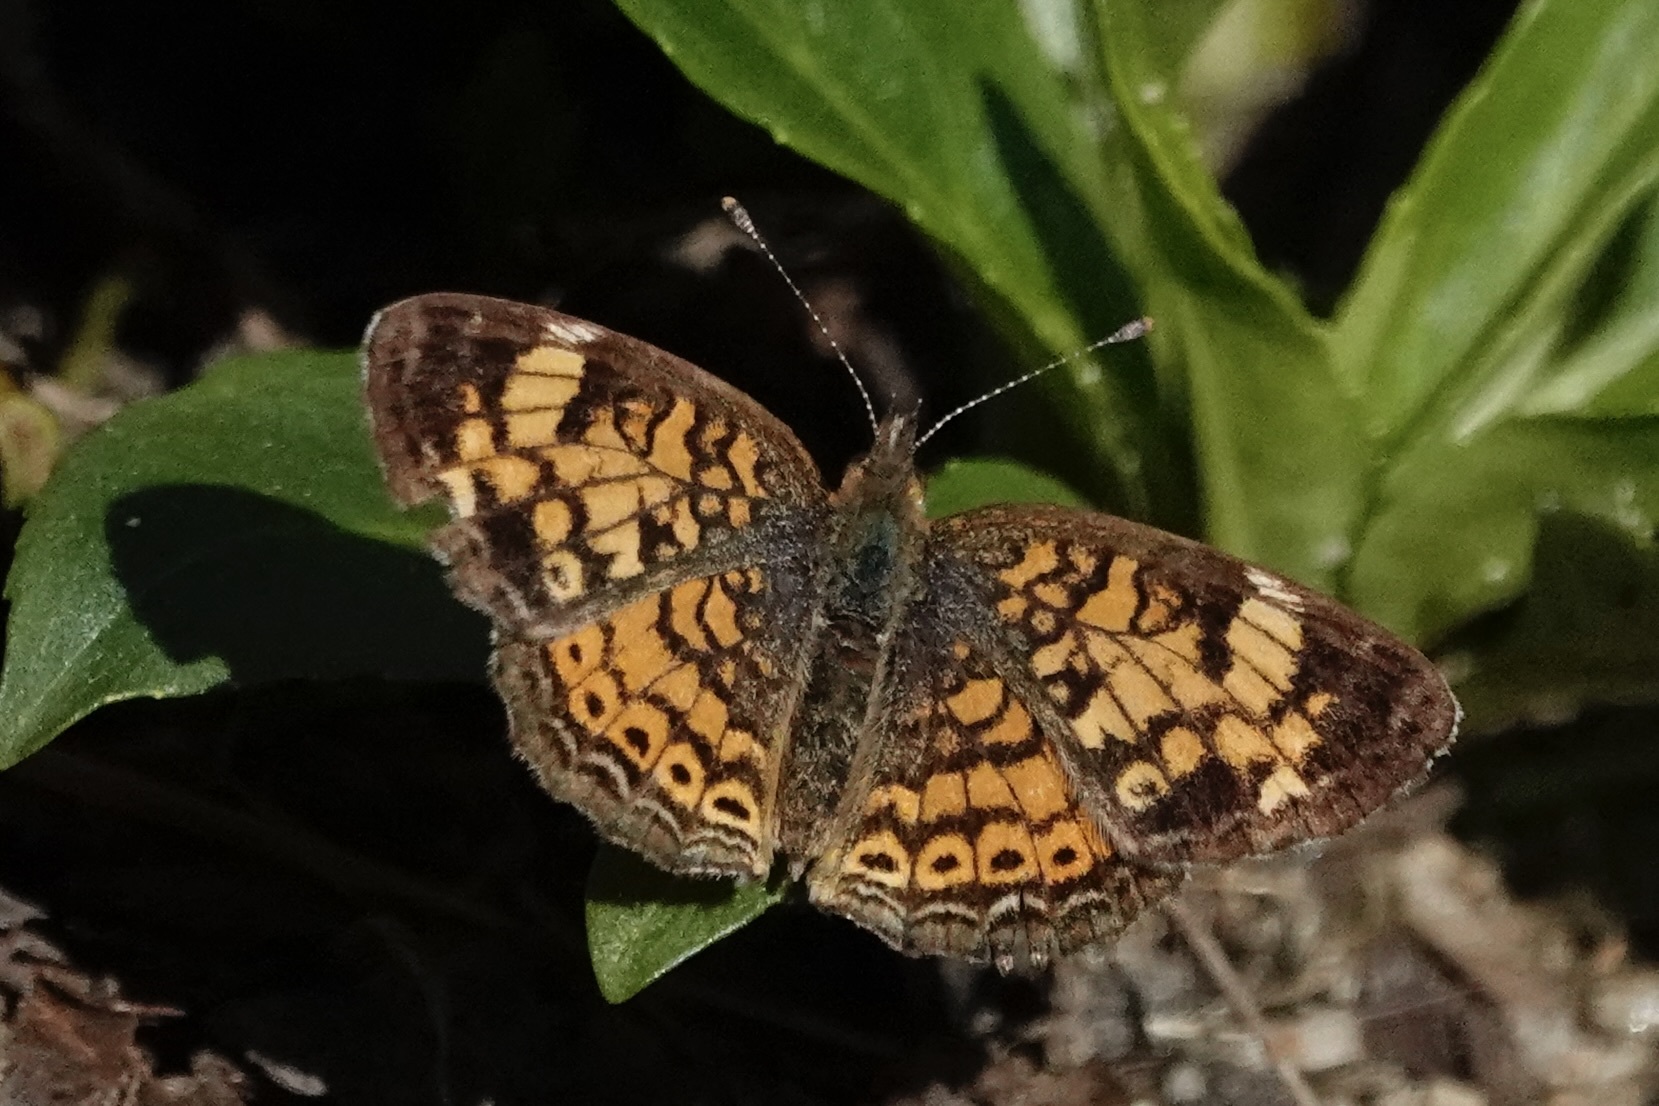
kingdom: Animalia
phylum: Arthropoda
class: Insecta
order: Lepidoptera
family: Nymphalidae
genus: Phyciodes
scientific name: Phyciodes tharos
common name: Pearl crescent
